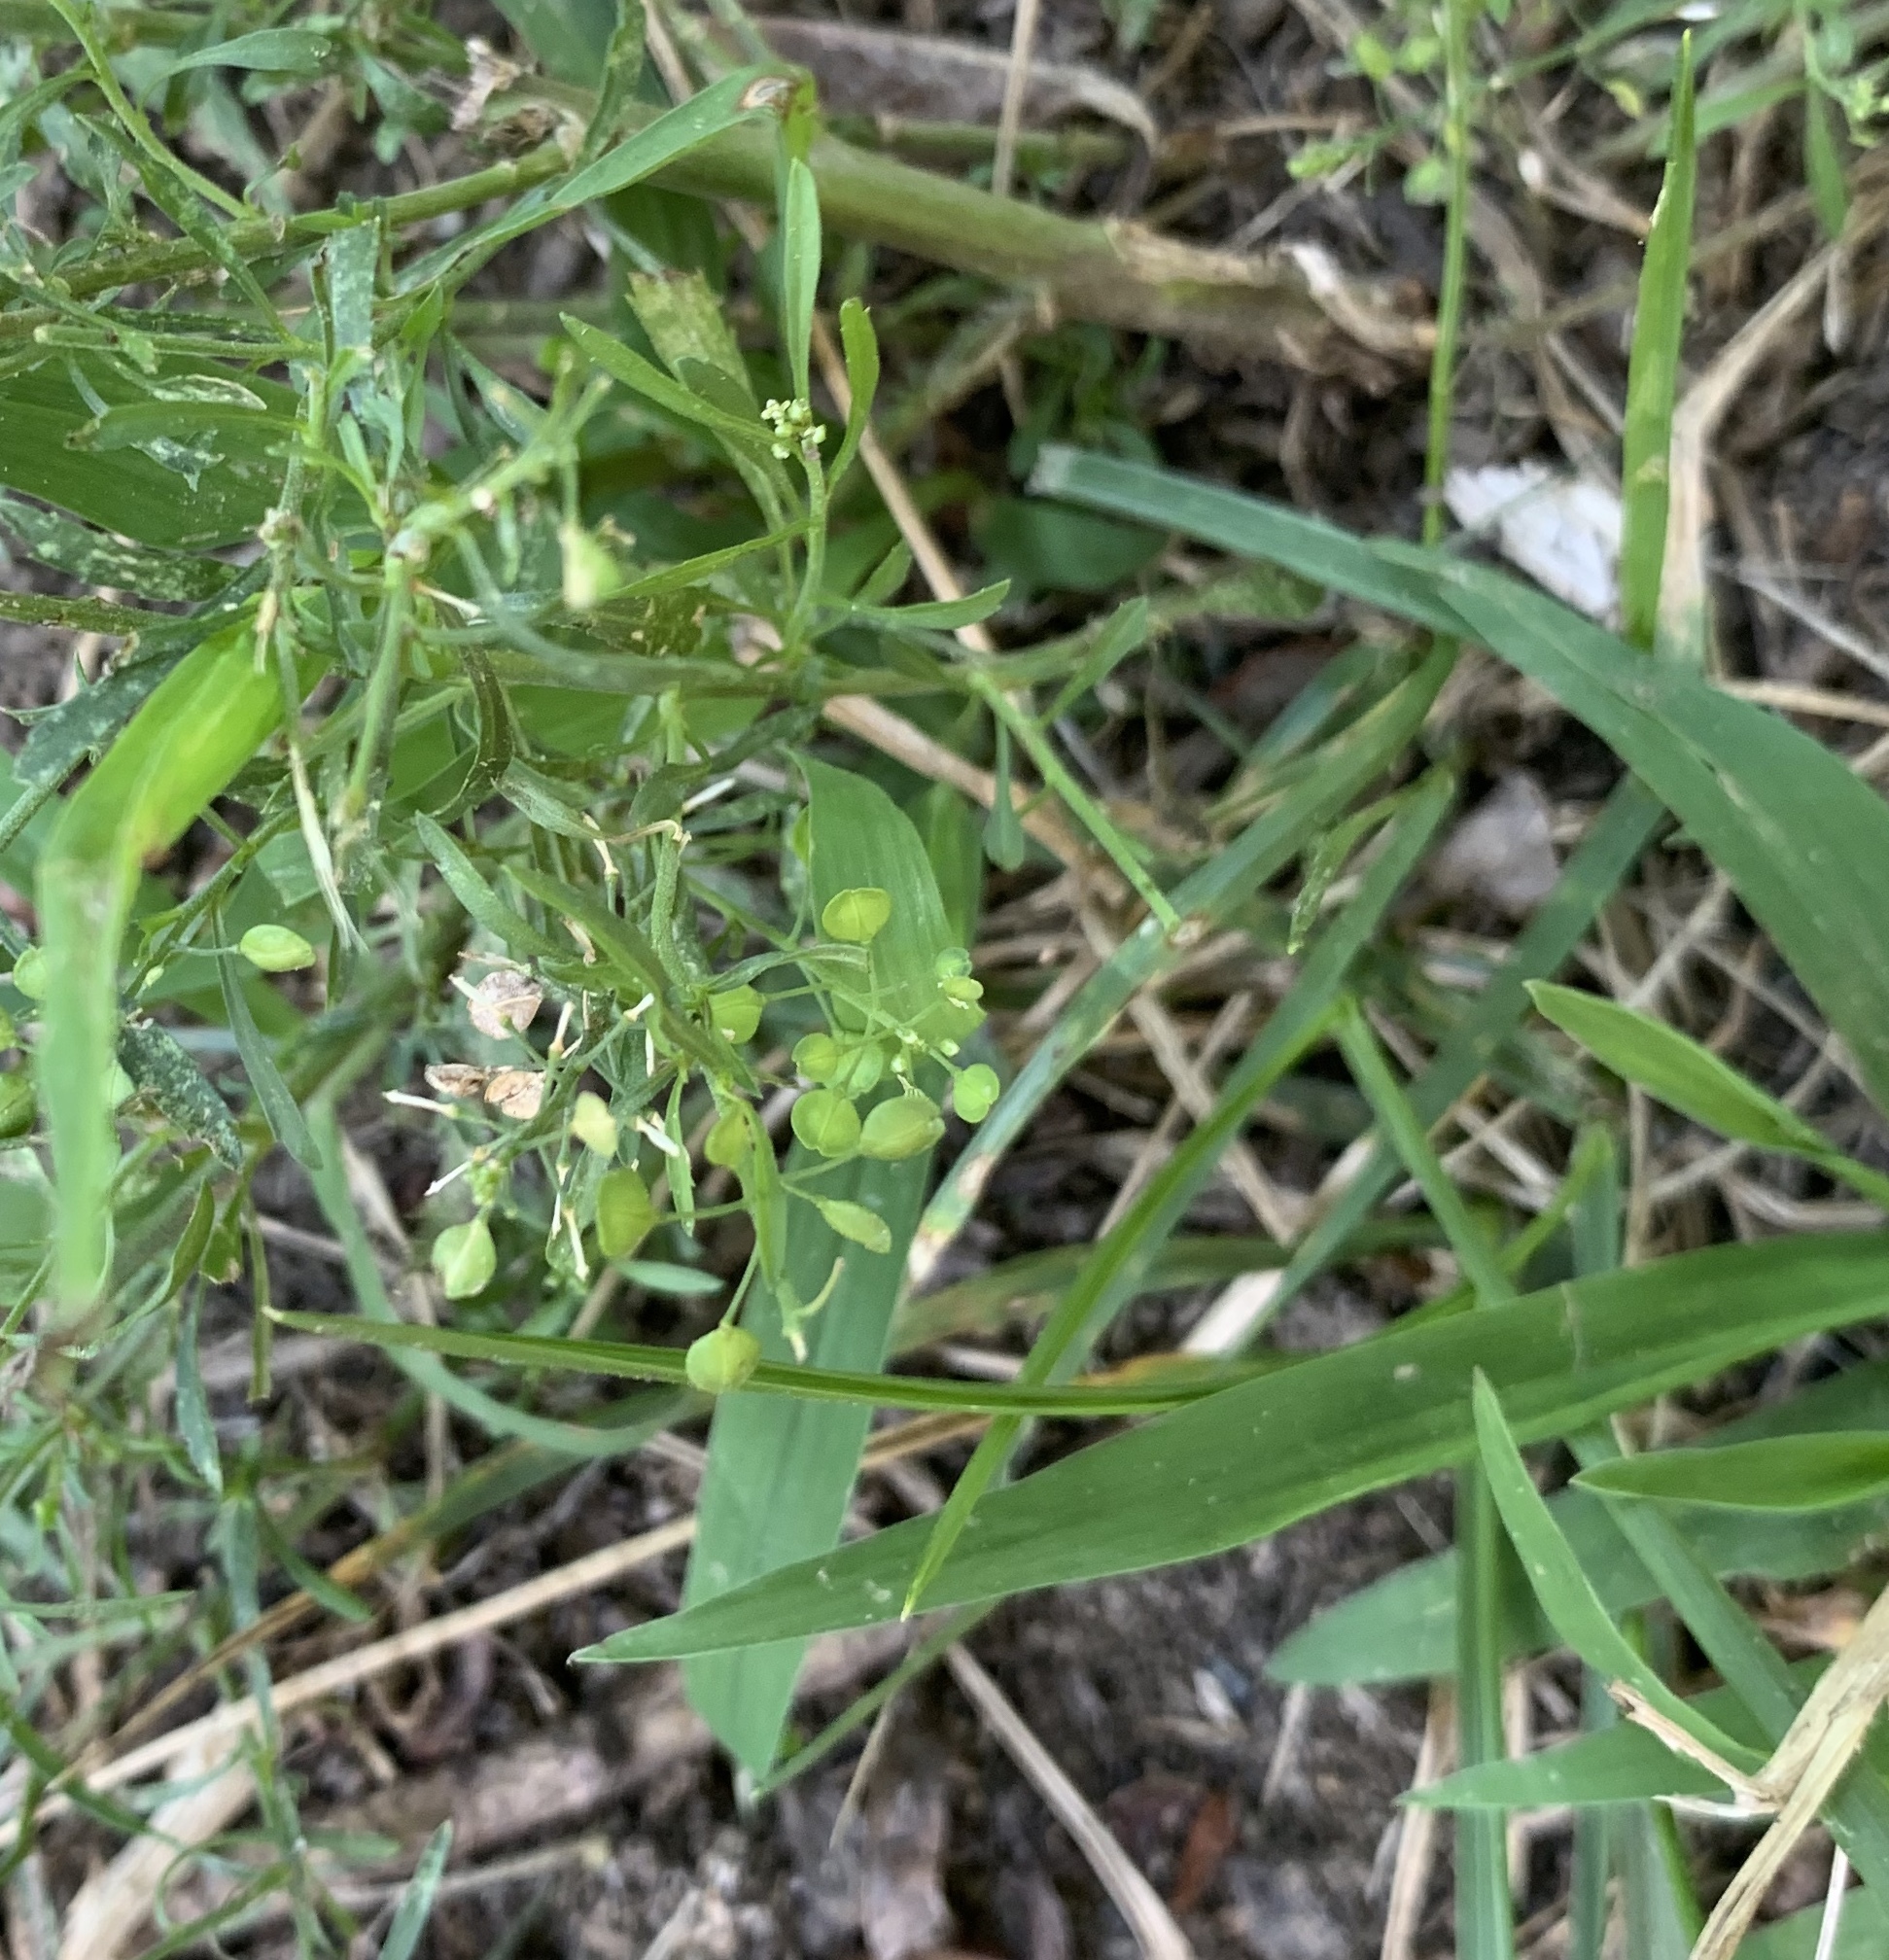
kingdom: Plantae
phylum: Tracheophyta
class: Magnoliopsida
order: Brassicales
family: Brassicaceae
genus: Lepidium
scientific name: Lepidium virginicum
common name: Least pepperwort
